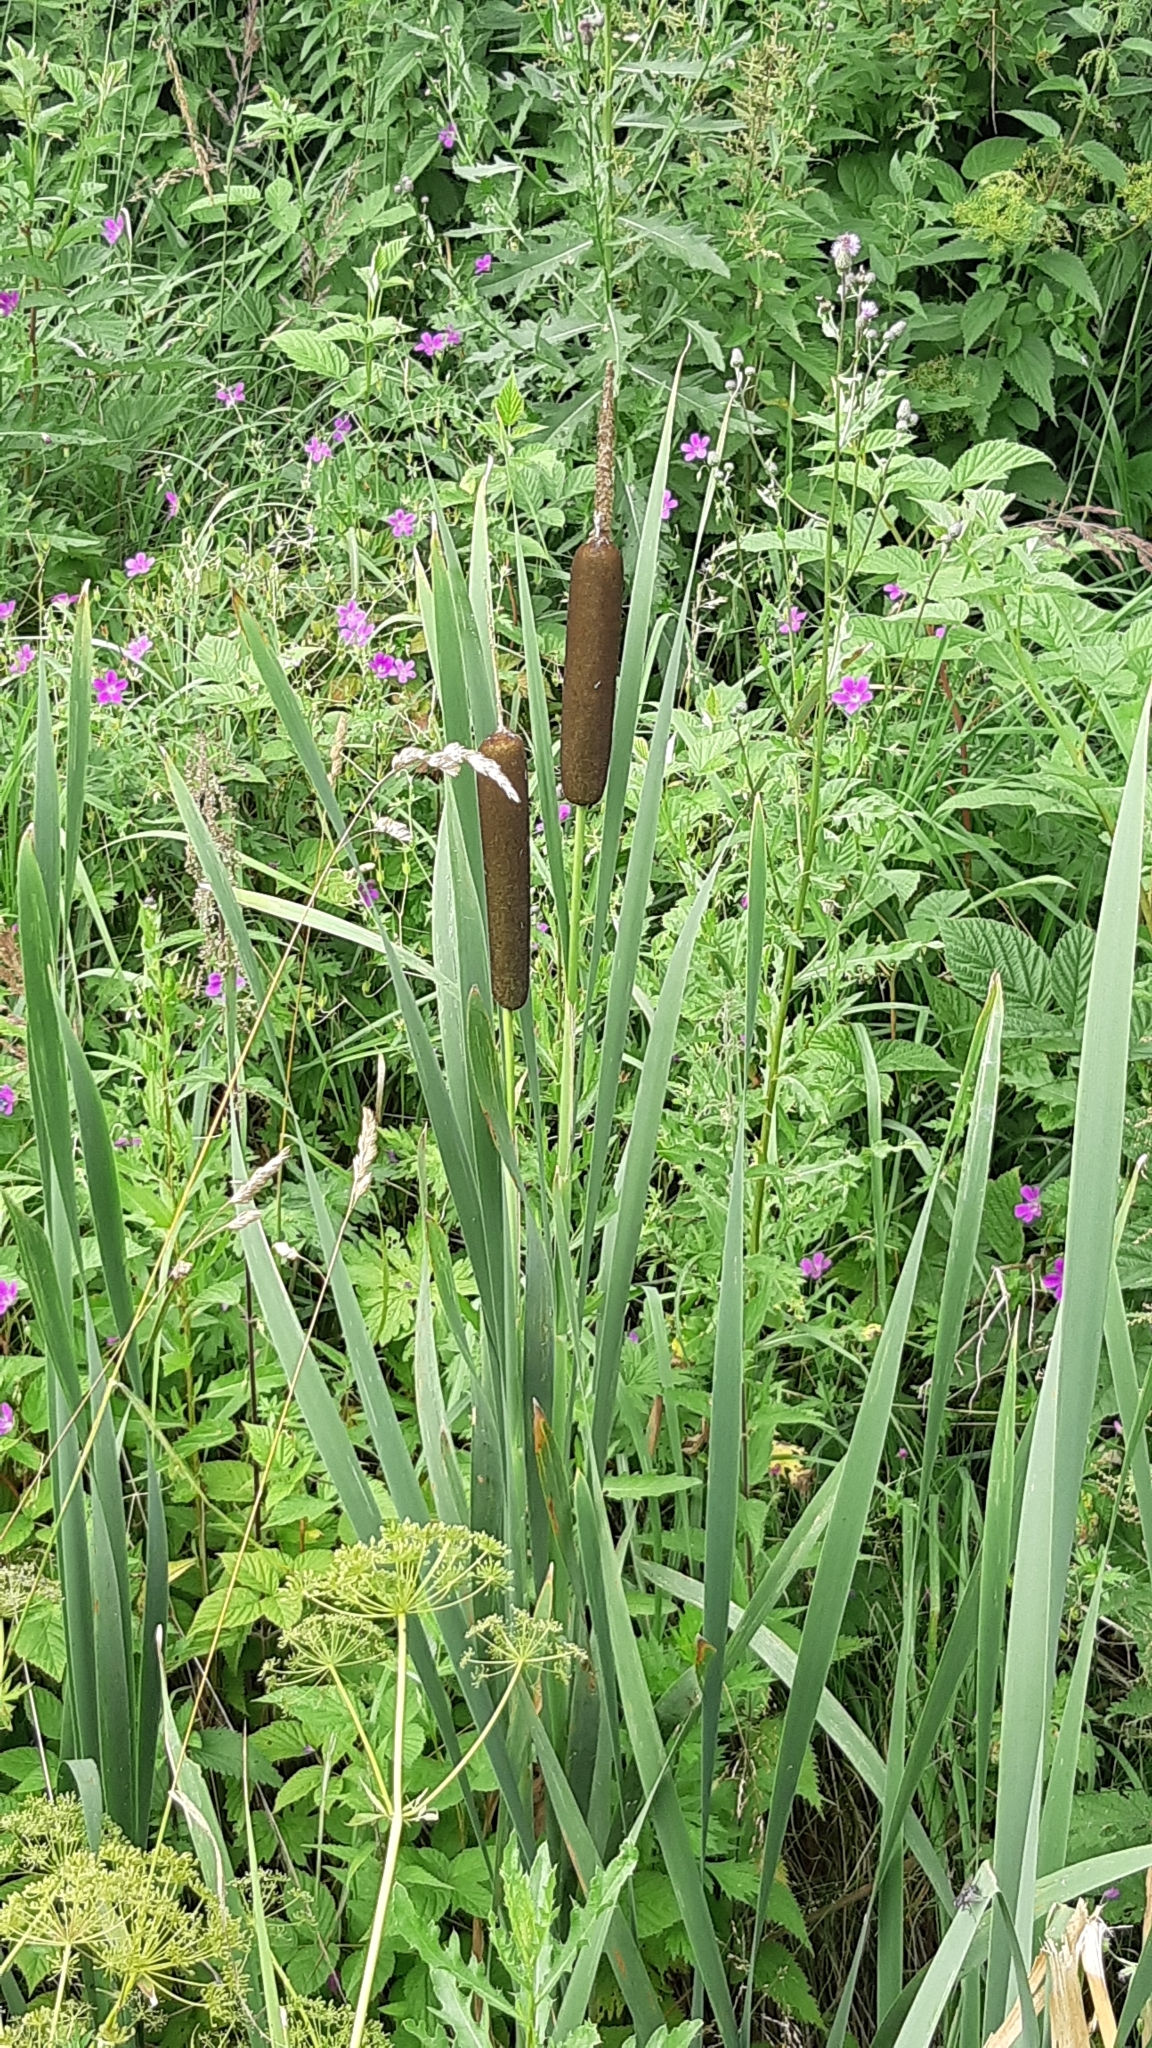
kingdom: Plantae
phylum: Tracheophyta
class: Liliopsida
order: Poales
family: Typhaceae
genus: Typha
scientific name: Typha latifolia
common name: Broadleaf cattail
